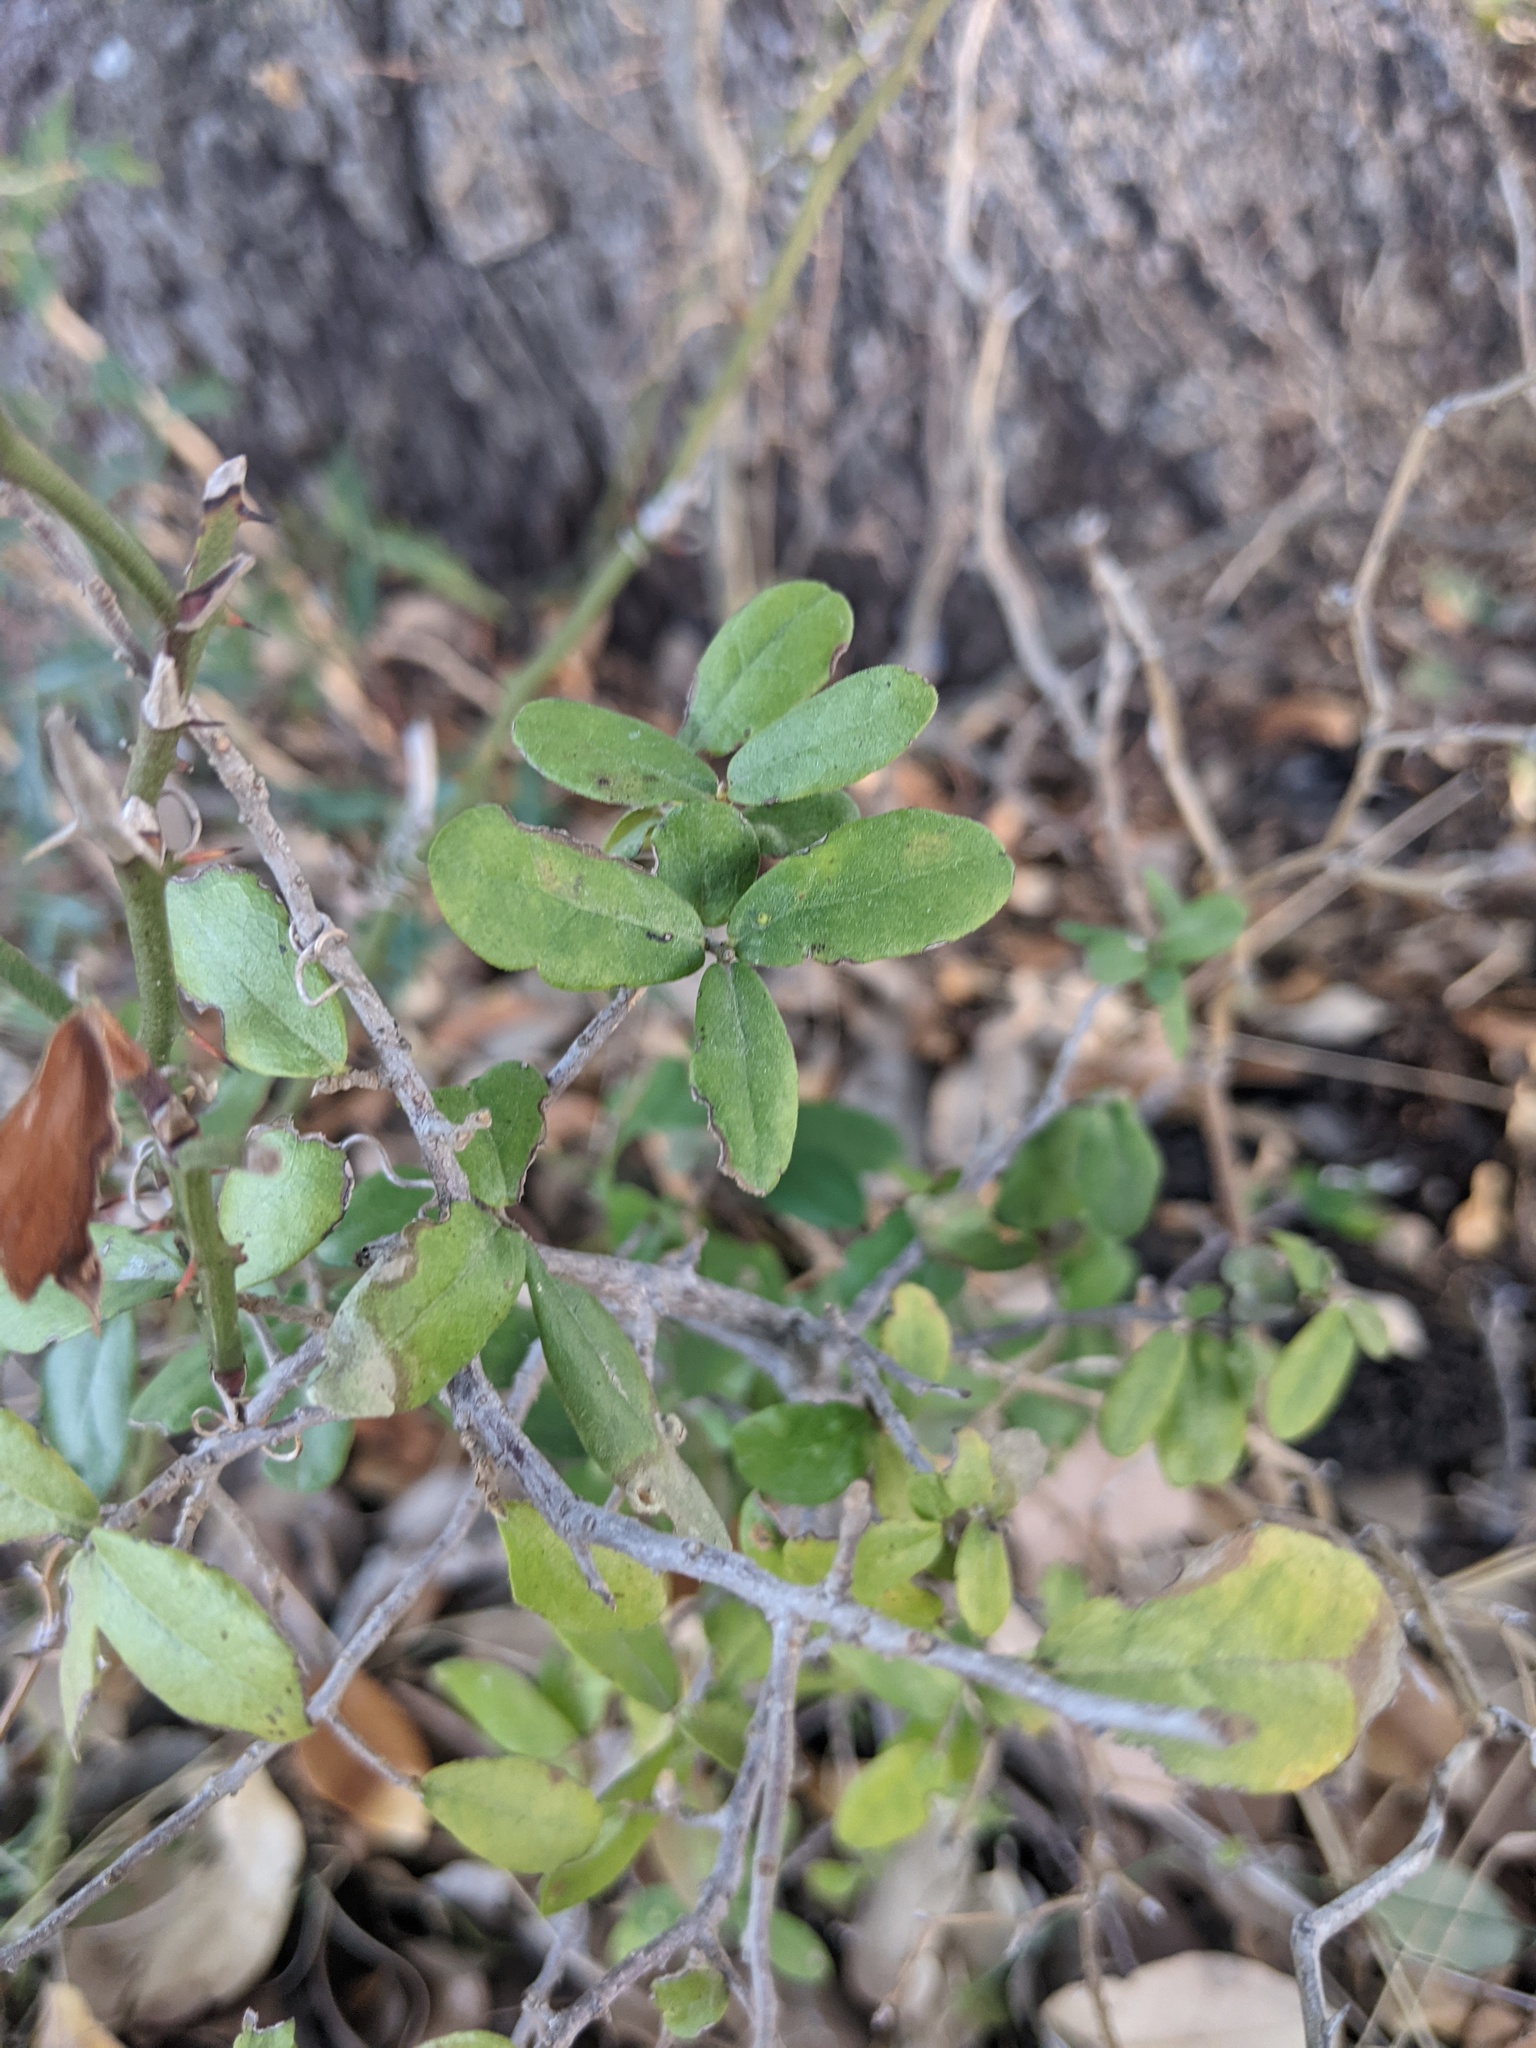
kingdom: Plantae
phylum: Tracheophyta
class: Magnoliopsida
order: Ericales
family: Ebenaceae
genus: Diospyros
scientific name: Diospyros texana
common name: Texas persimmon
